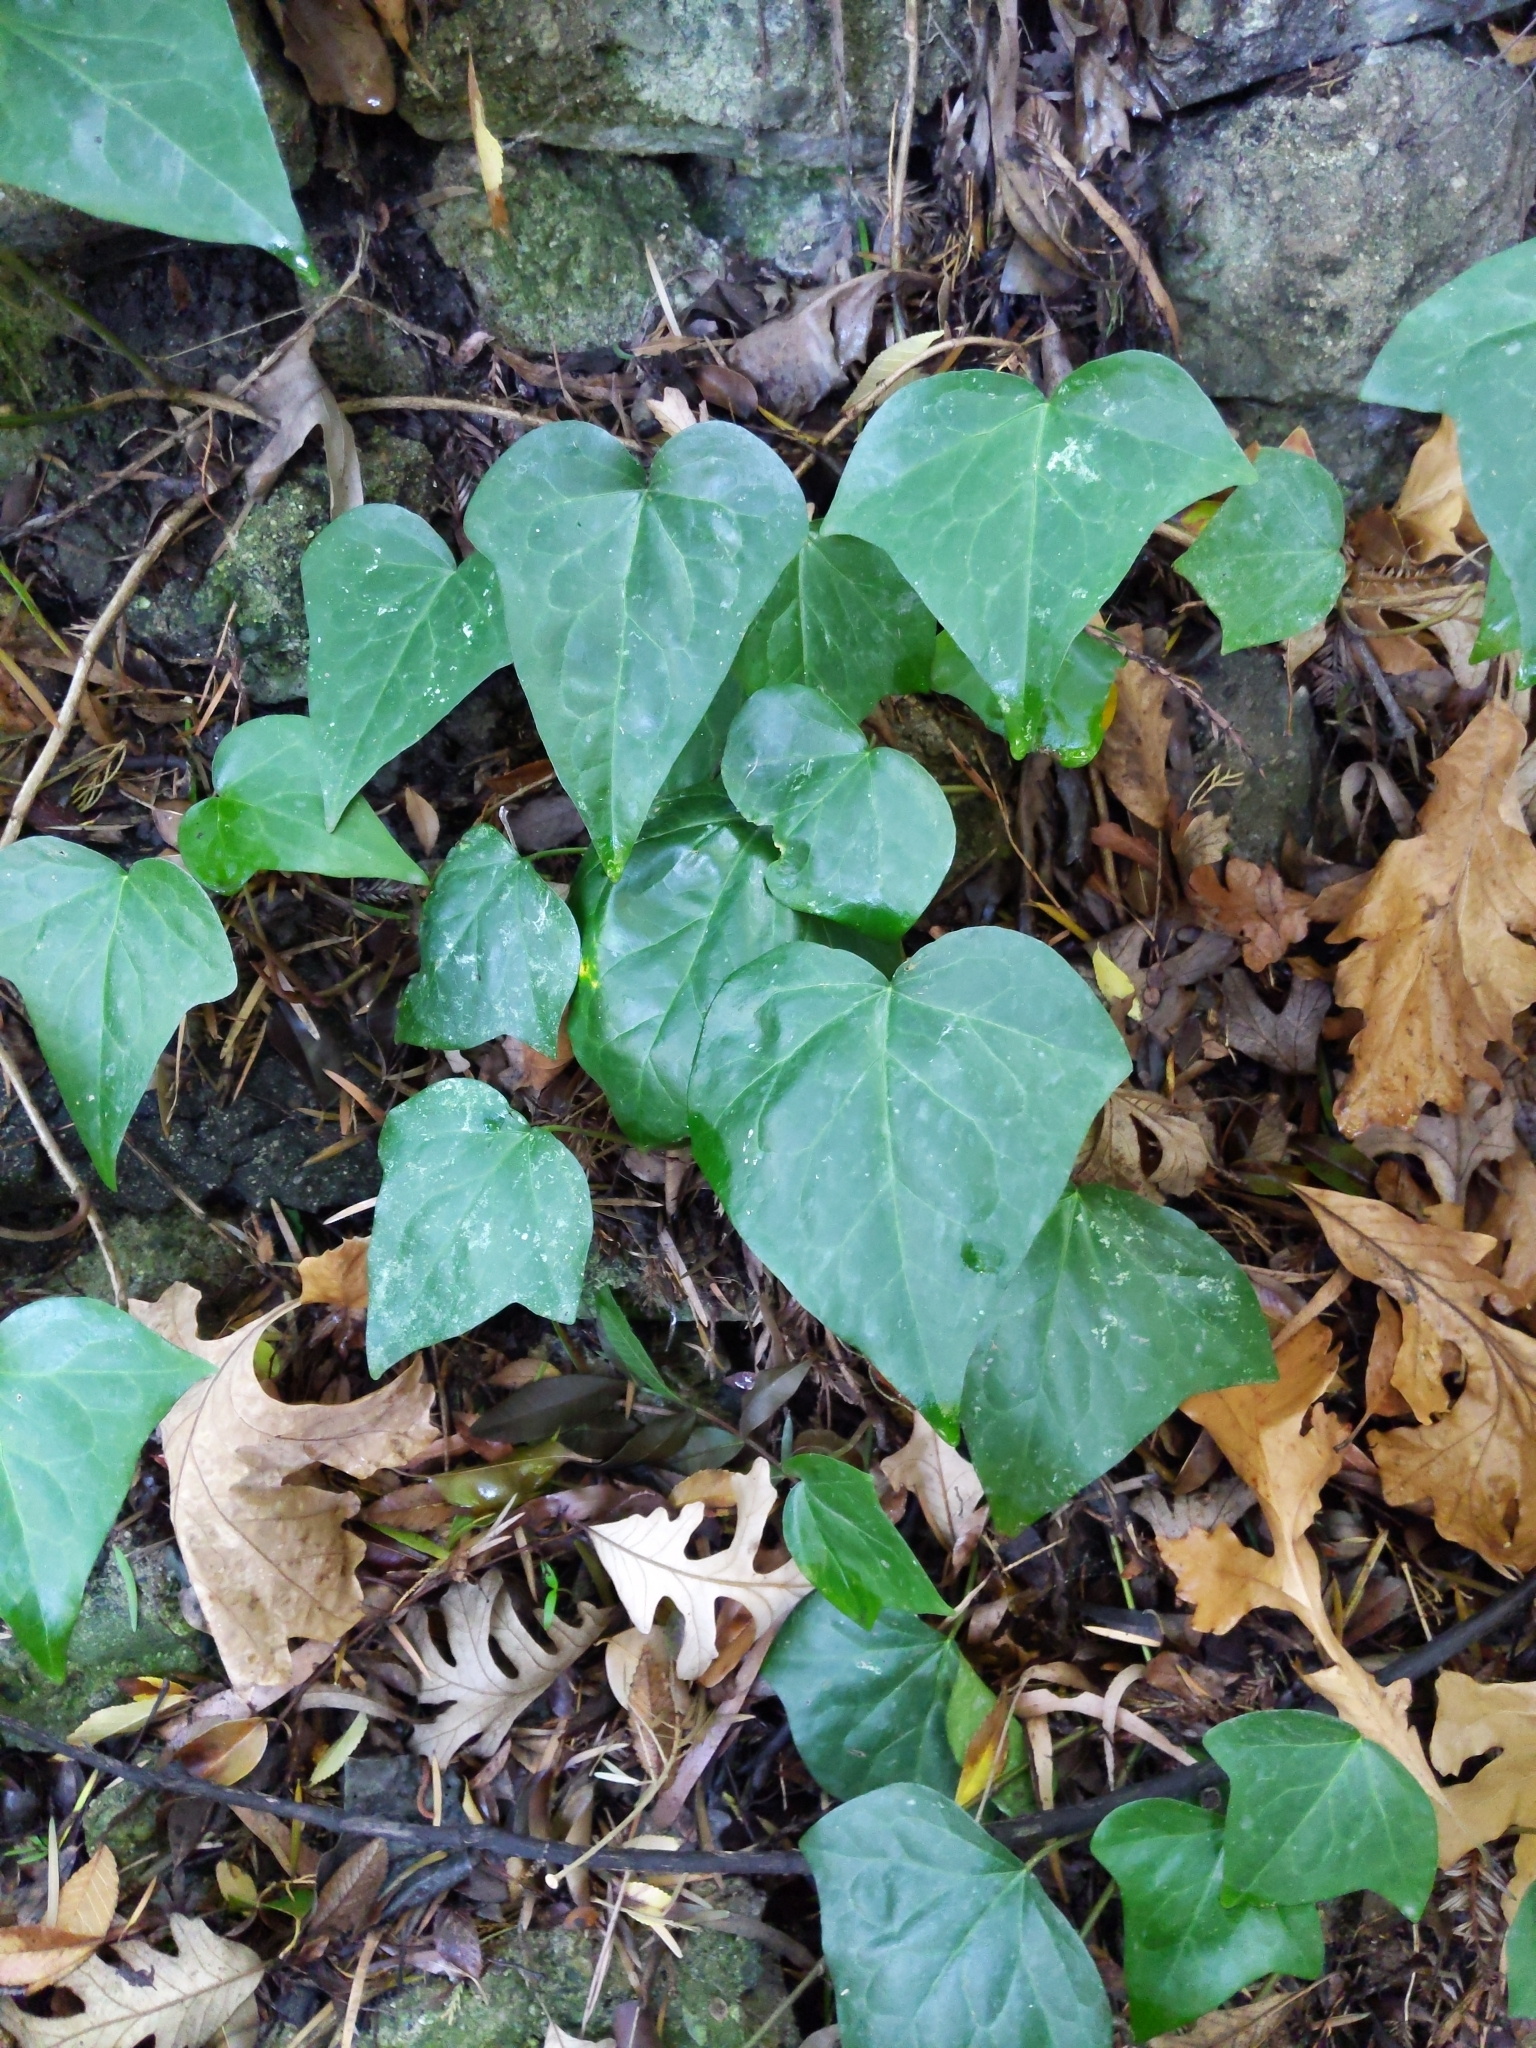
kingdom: Plantae
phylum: Tracheophyta
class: Magnoliopsida
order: Apiales
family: Araliaceae
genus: Hedera
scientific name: Hedera helix
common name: Ivy
